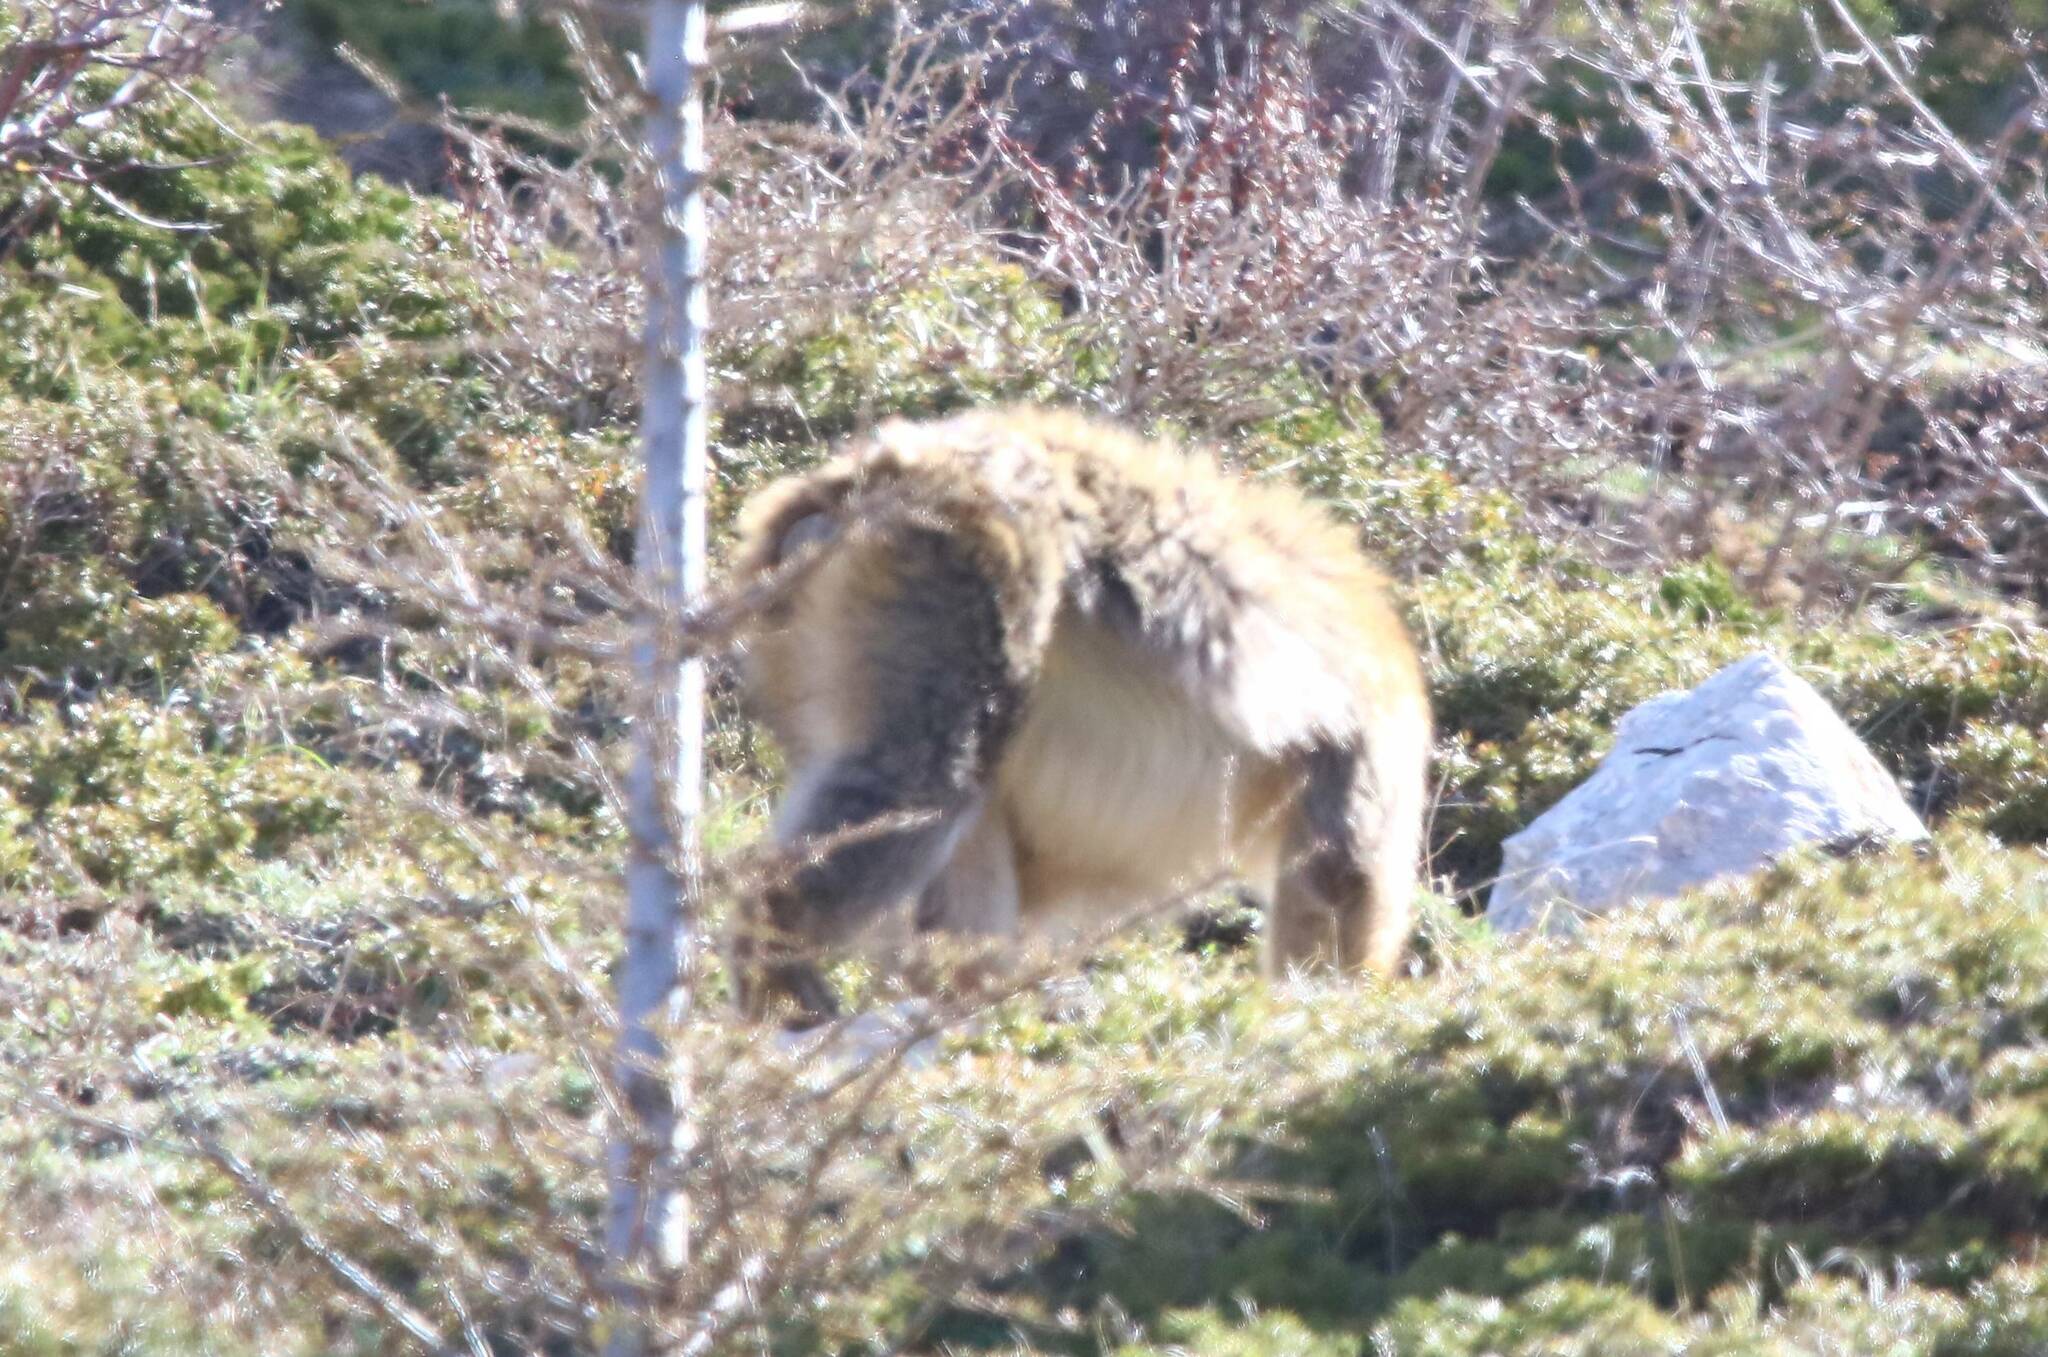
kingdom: Animalia
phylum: Chordata
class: Mammalia
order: Primates
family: Cercopithecidae
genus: Macaca
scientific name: Macaca sylvanus
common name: Barbary macaque
